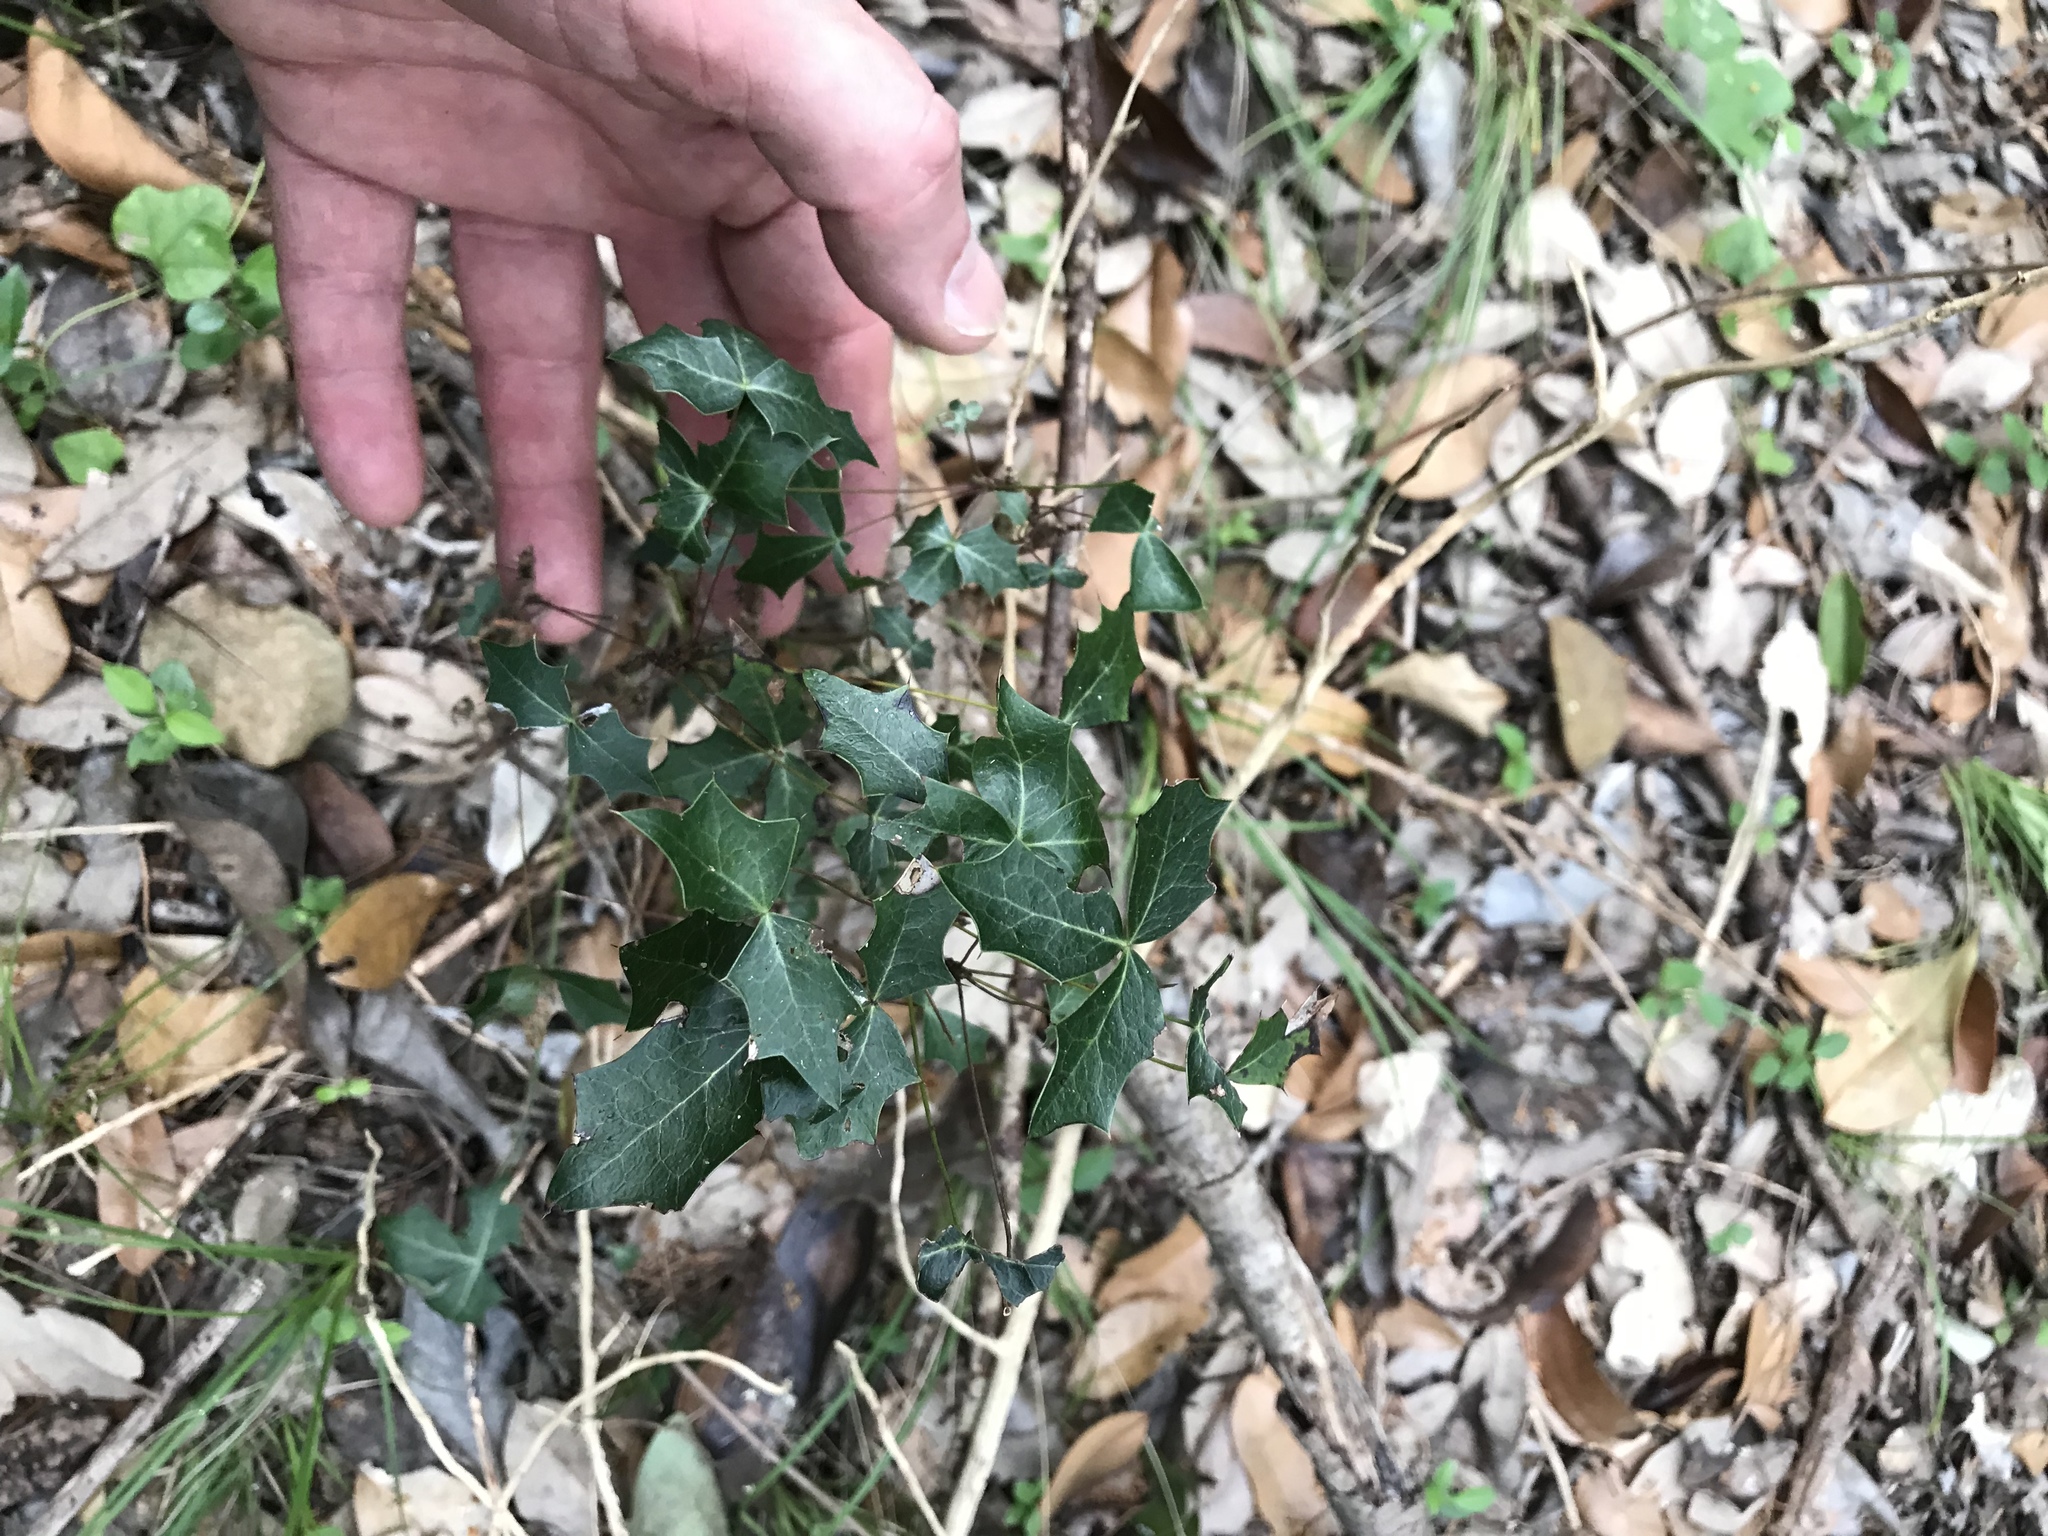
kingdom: Plantae
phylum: Tracheophyta
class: Magnoliopsida
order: Ranunculales
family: Berberidaceae
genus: Alloberberis
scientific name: Alloberberis trifoliolata
